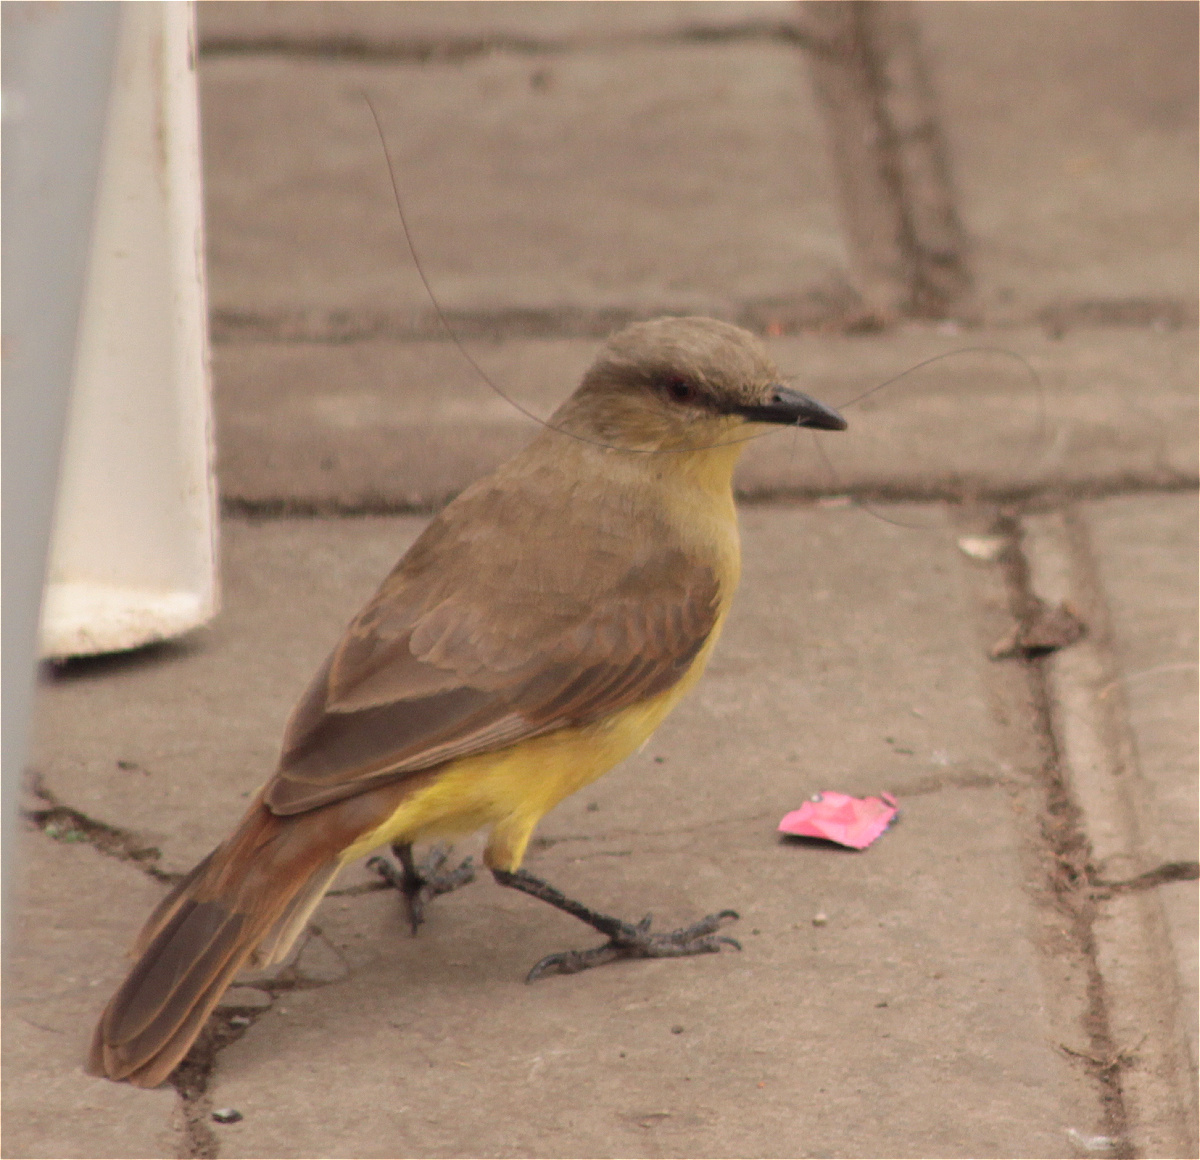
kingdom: Animalia
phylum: Chordata
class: Aves
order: Passeriformes
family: Tyrannidae
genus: Machetornis
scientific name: Machetornis rixosa
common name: Cattle tyrant
